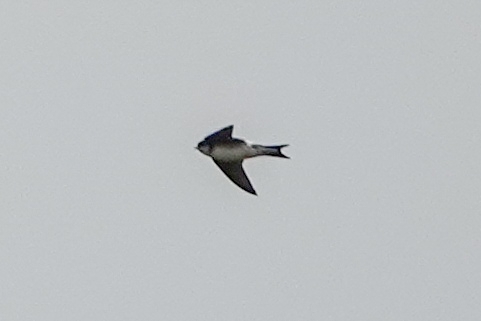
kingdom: Animalia
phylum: Chordata
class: Aves
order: Passeriformes
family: Hirundinidae
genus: Riparia
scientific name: Riparia riparia
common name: Sand martin
